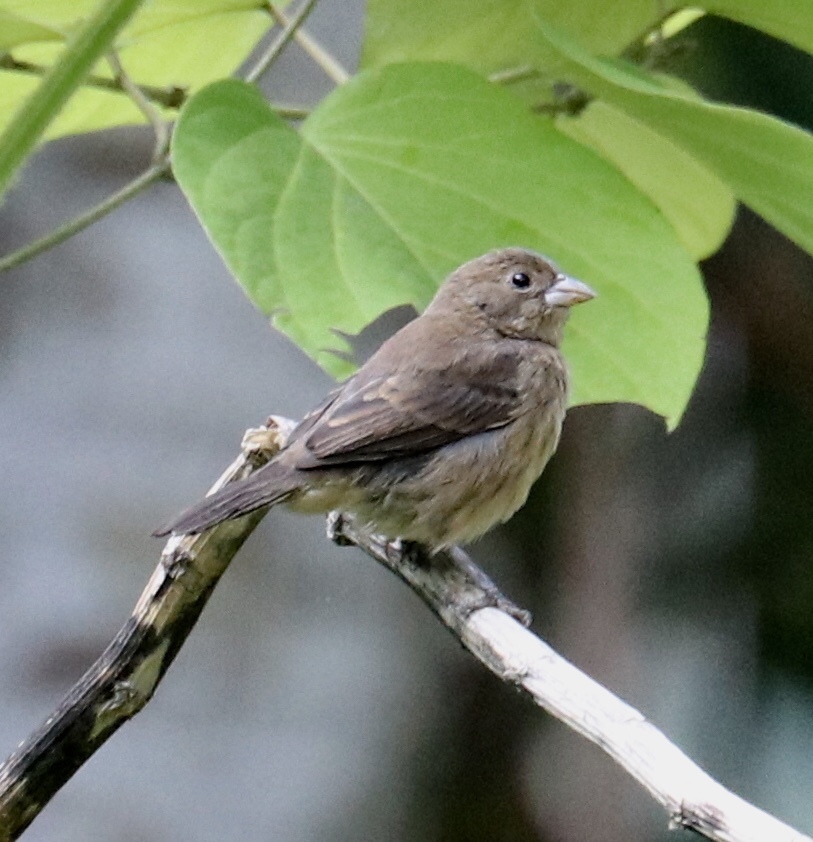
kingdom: Animalia
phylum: Chordata
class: Aves
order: Passeriformes
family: Thraupidae
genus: Volatinia
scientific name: Volatinia jacarina
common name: Blue-black grassquit
